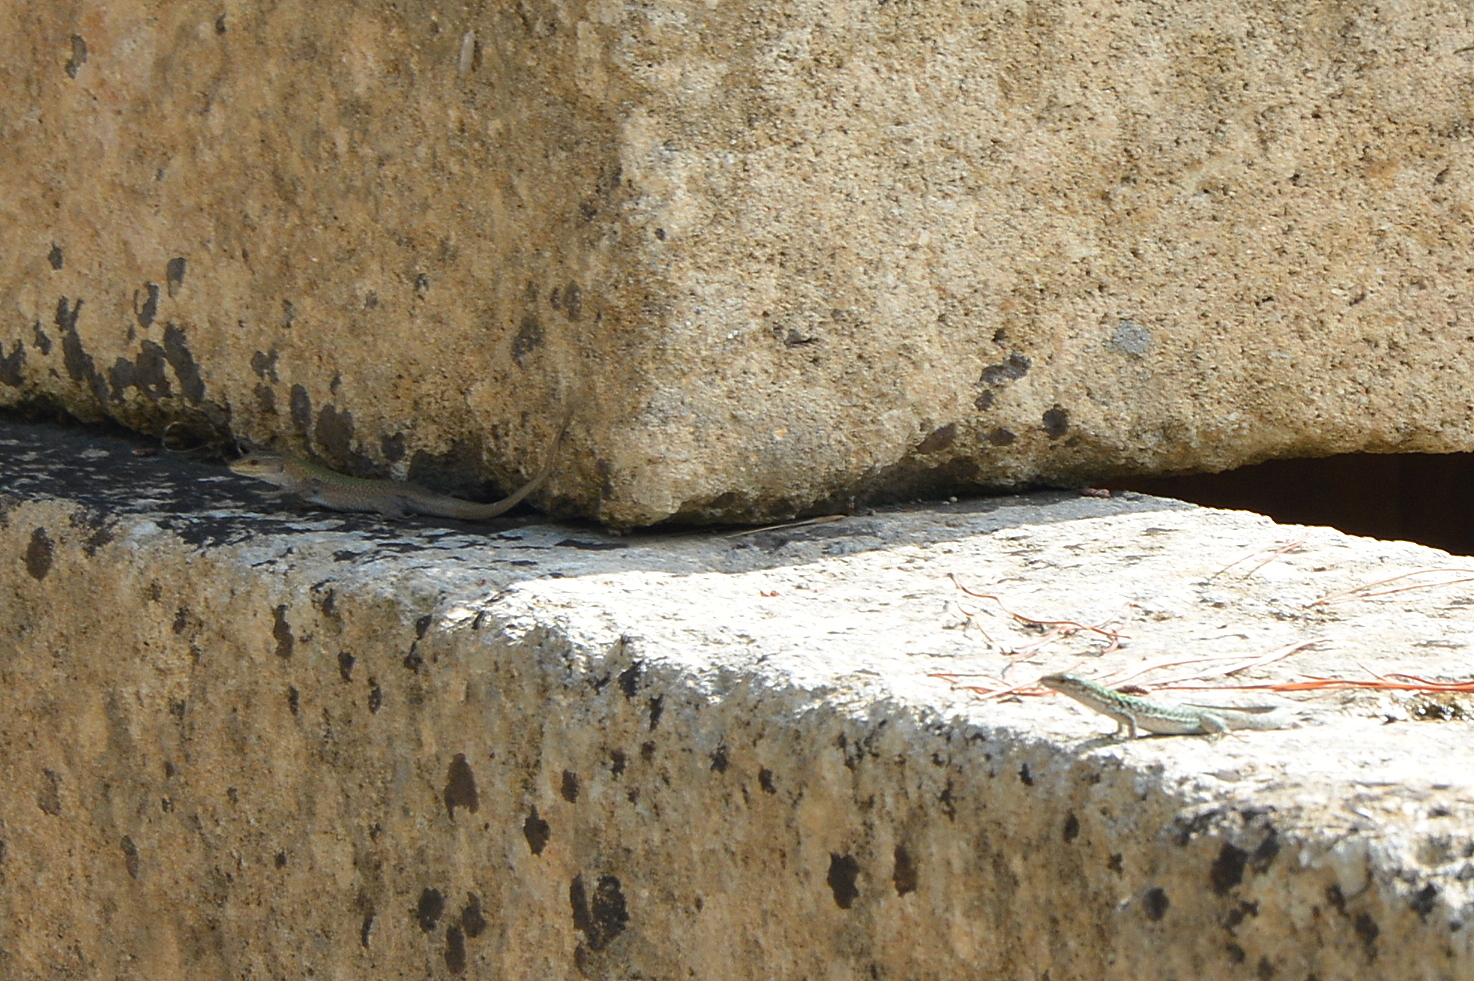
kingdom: Animalia
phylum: Chordata
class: Squamata
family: Lacertidae
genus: Podarcis
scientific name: Podarcis siculus
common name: Italian wall lizard
